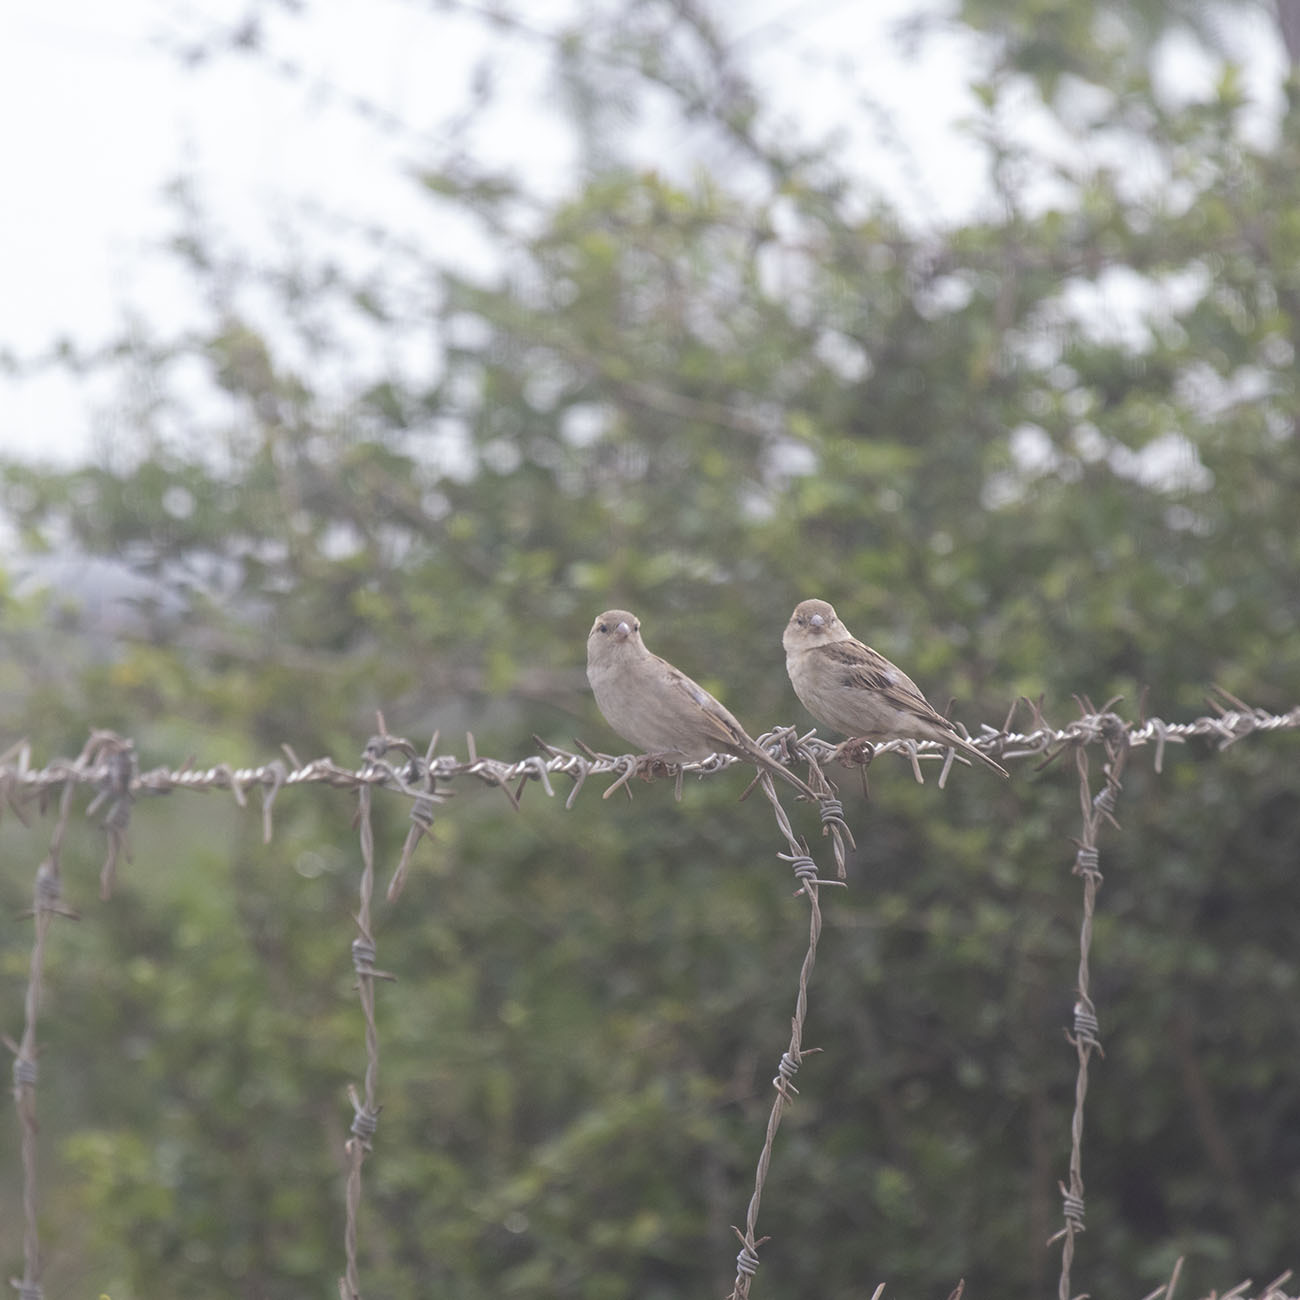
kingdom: Animalia
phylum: Chordata
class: Aves
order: Passeriformes
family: Passeridae
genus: Passer
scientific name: Passer domesticus
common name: House sparrow
